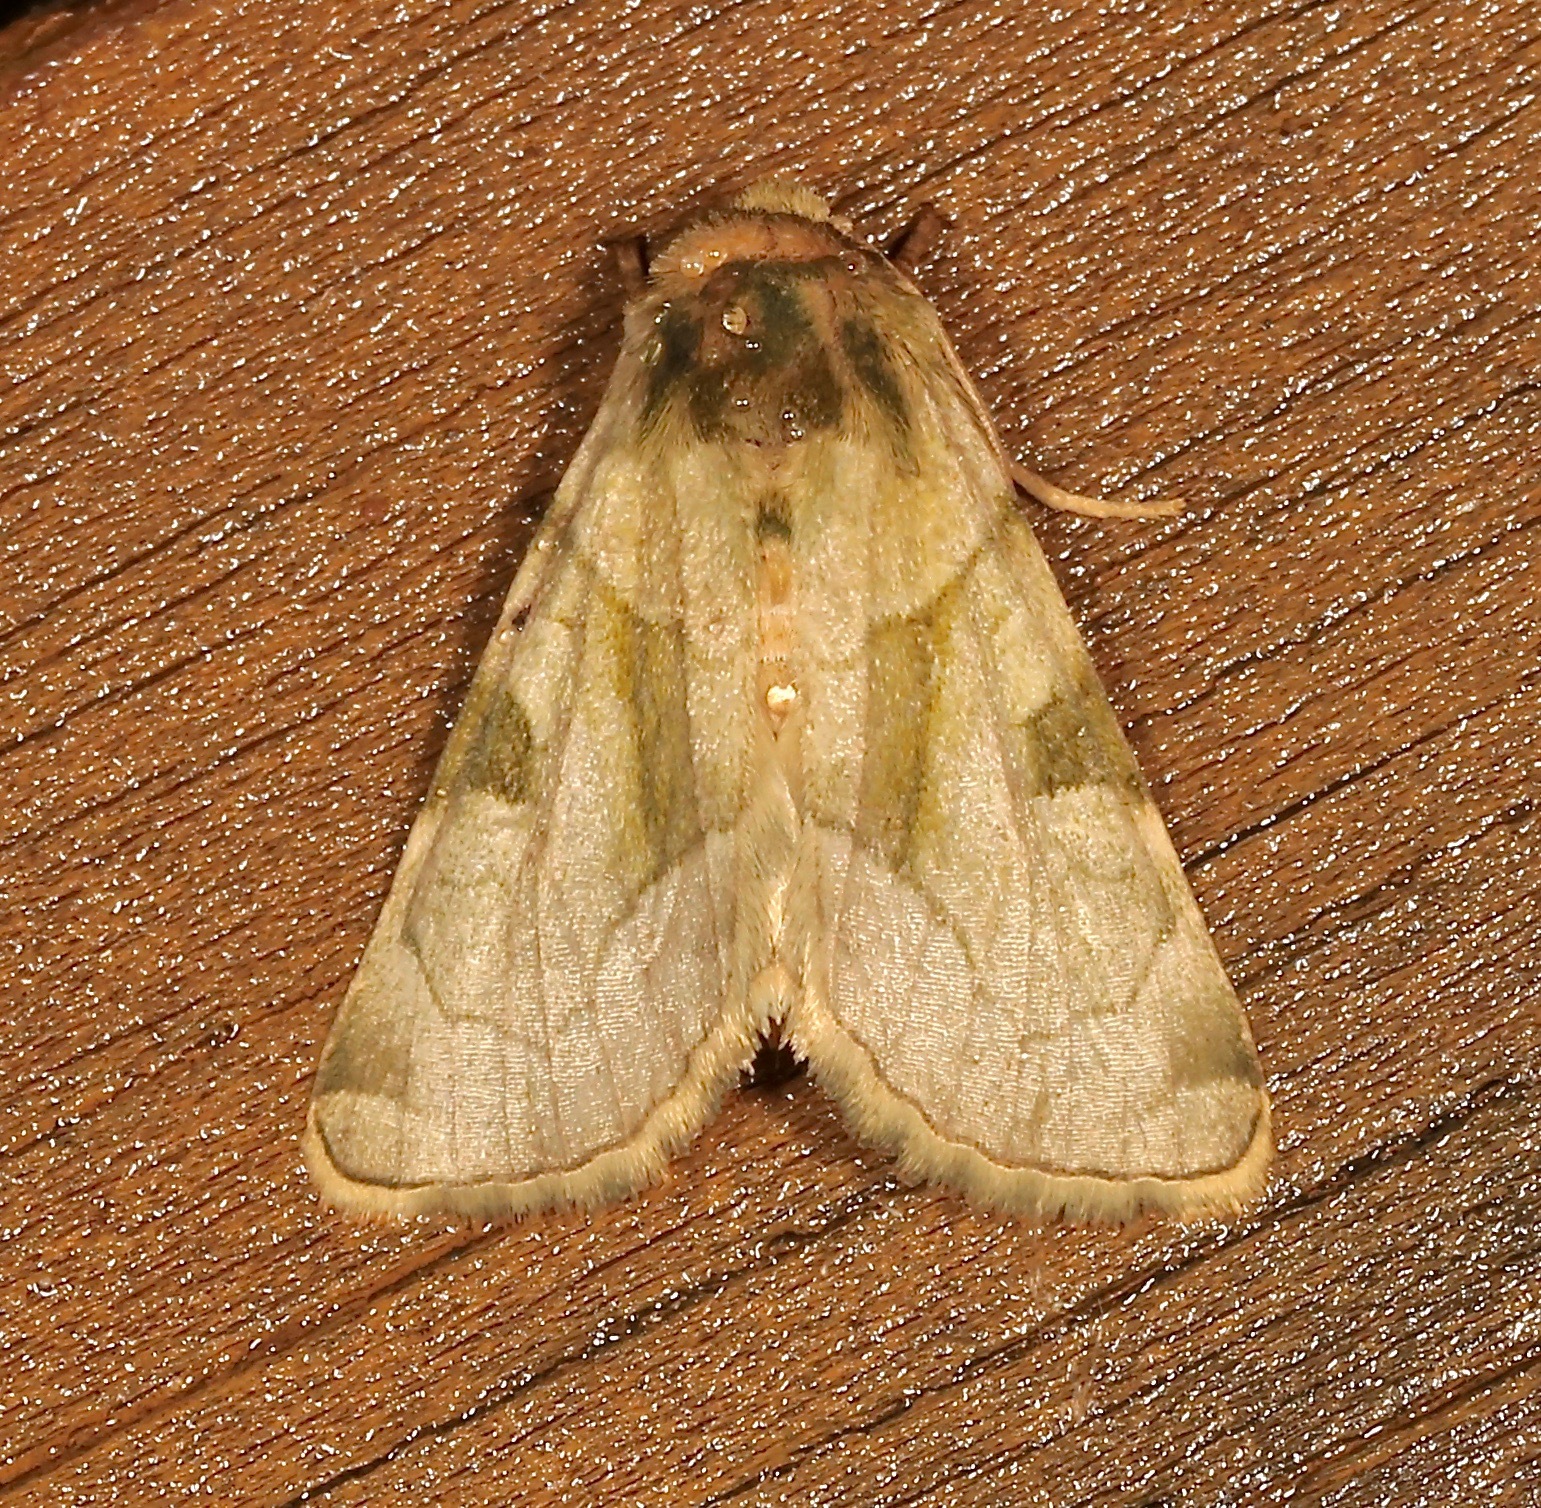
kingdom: Animalia
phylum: Arthropoda
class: Insecta
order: Lepidoptera
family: Noctuidae
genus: Oslaria
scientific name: Oslaria viridifera
